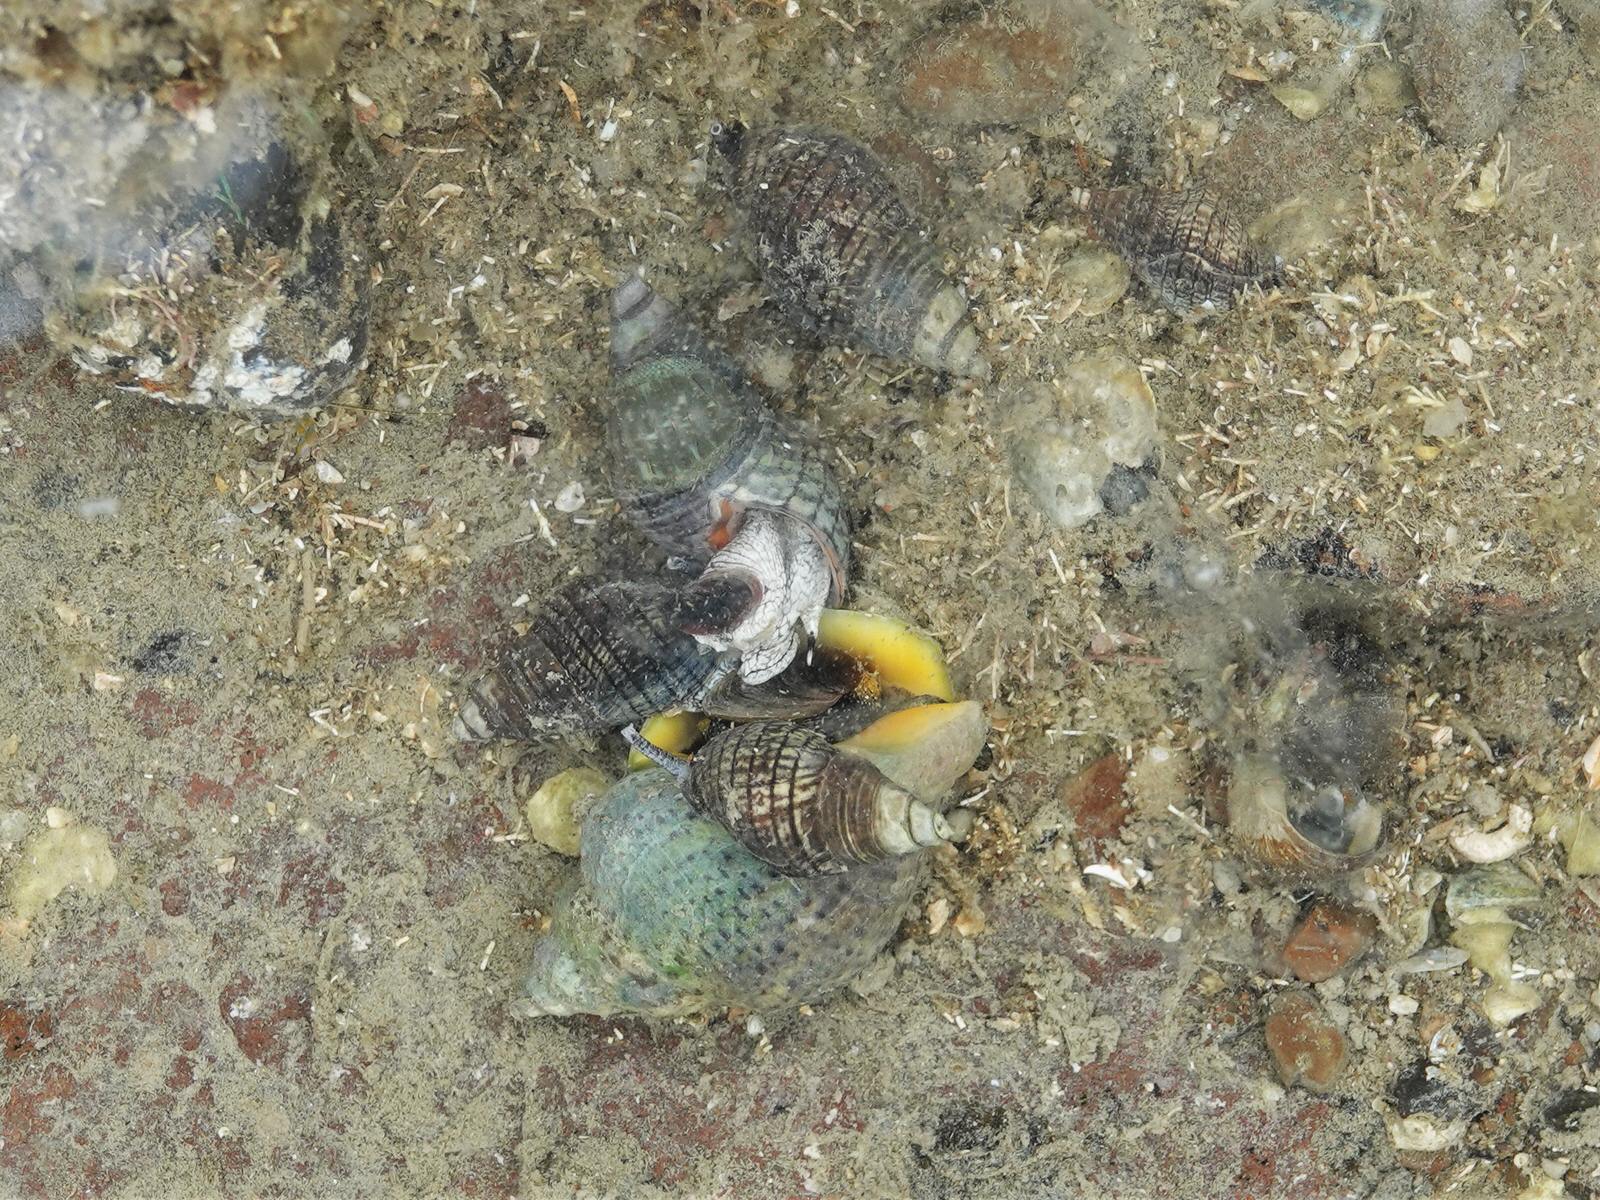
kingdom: Animalia
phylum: Mollusca
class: Gastropoda
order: Neogastropoda
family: Cominellidae
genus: Cominella
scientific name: Cominella adspersa
